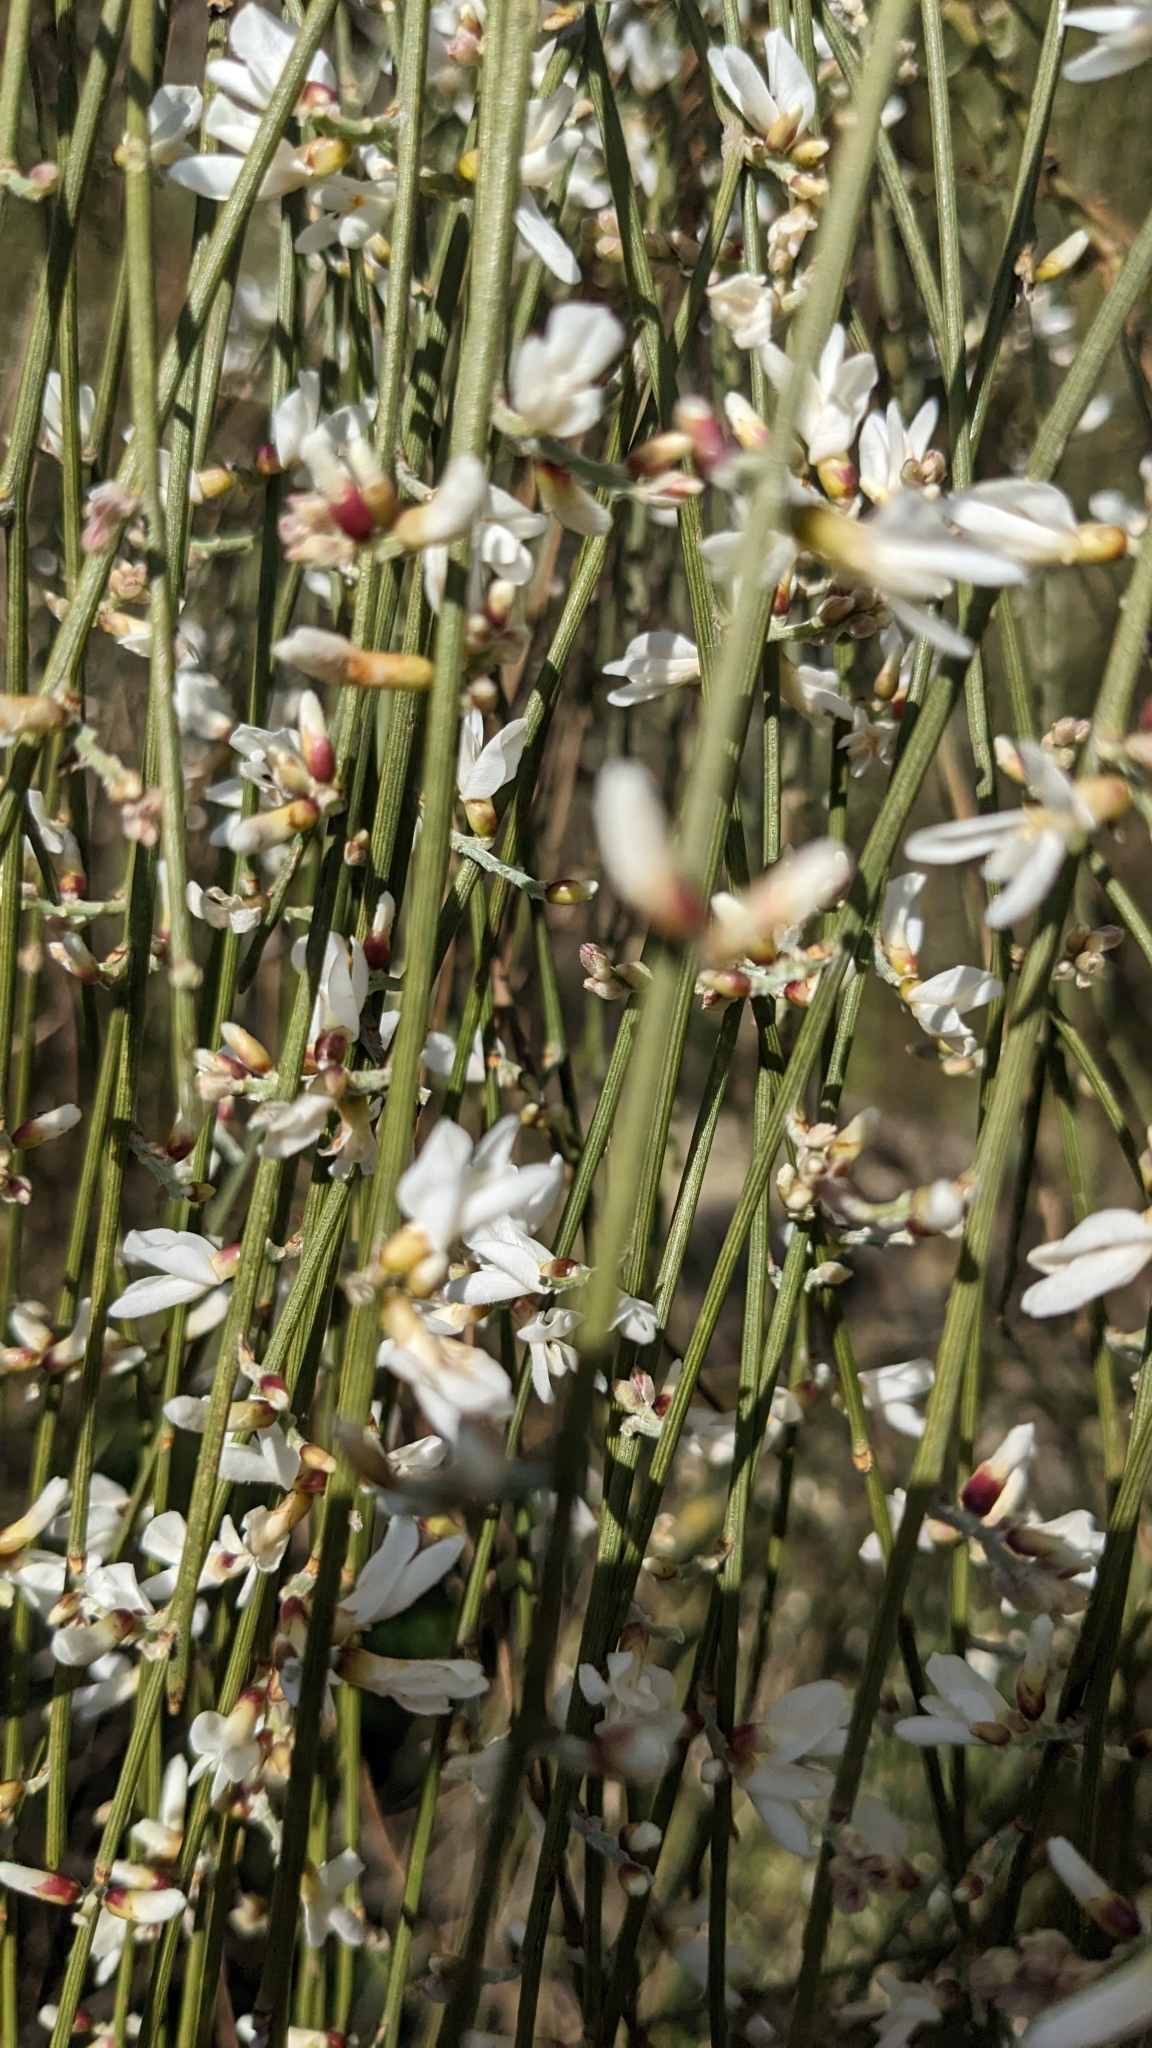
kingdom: Plantae
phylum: Tracheophyta
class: Magnoliopsida
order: Fabales
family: Fabaceae
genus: Retama
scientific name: Retama monosperma
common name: Bridal broom
